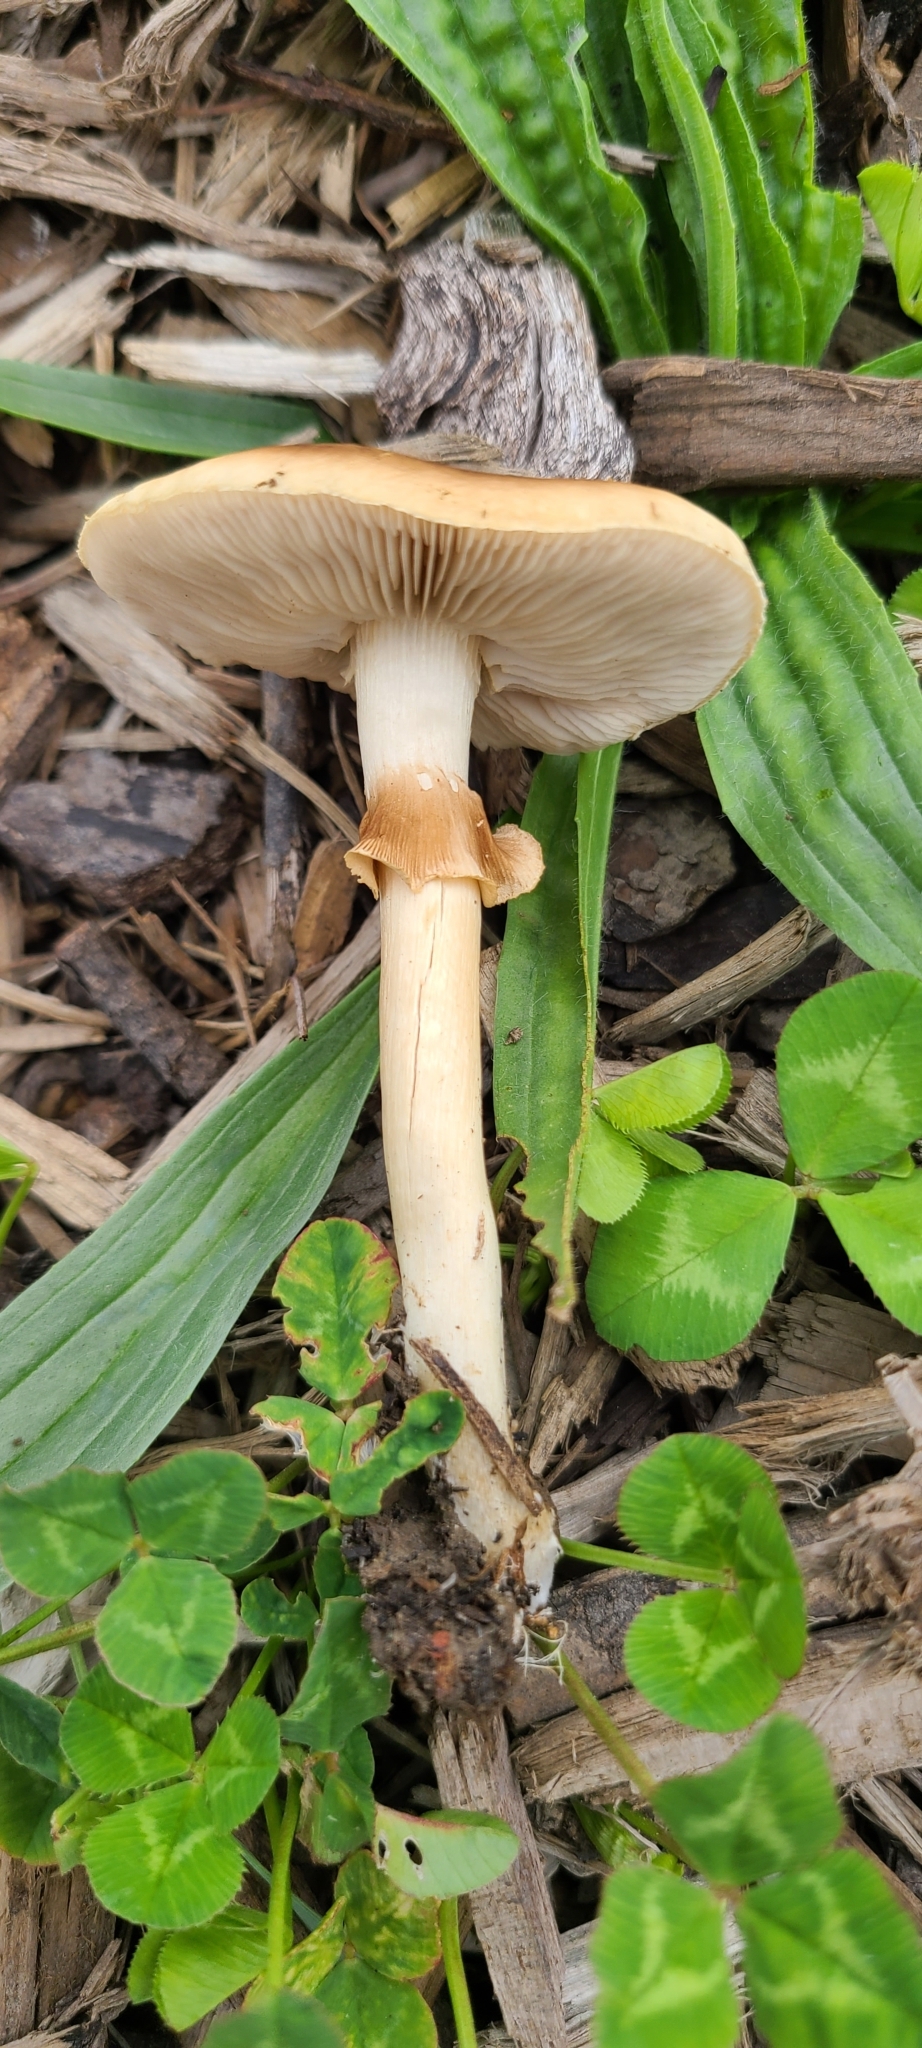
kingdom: Fungi
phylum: Basidiomycota
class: Agaricomycetes
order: Agaricales
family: Strophariaceae
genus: Agrocybe
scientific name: Agrocybe praecox
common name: Spring fieldcap
